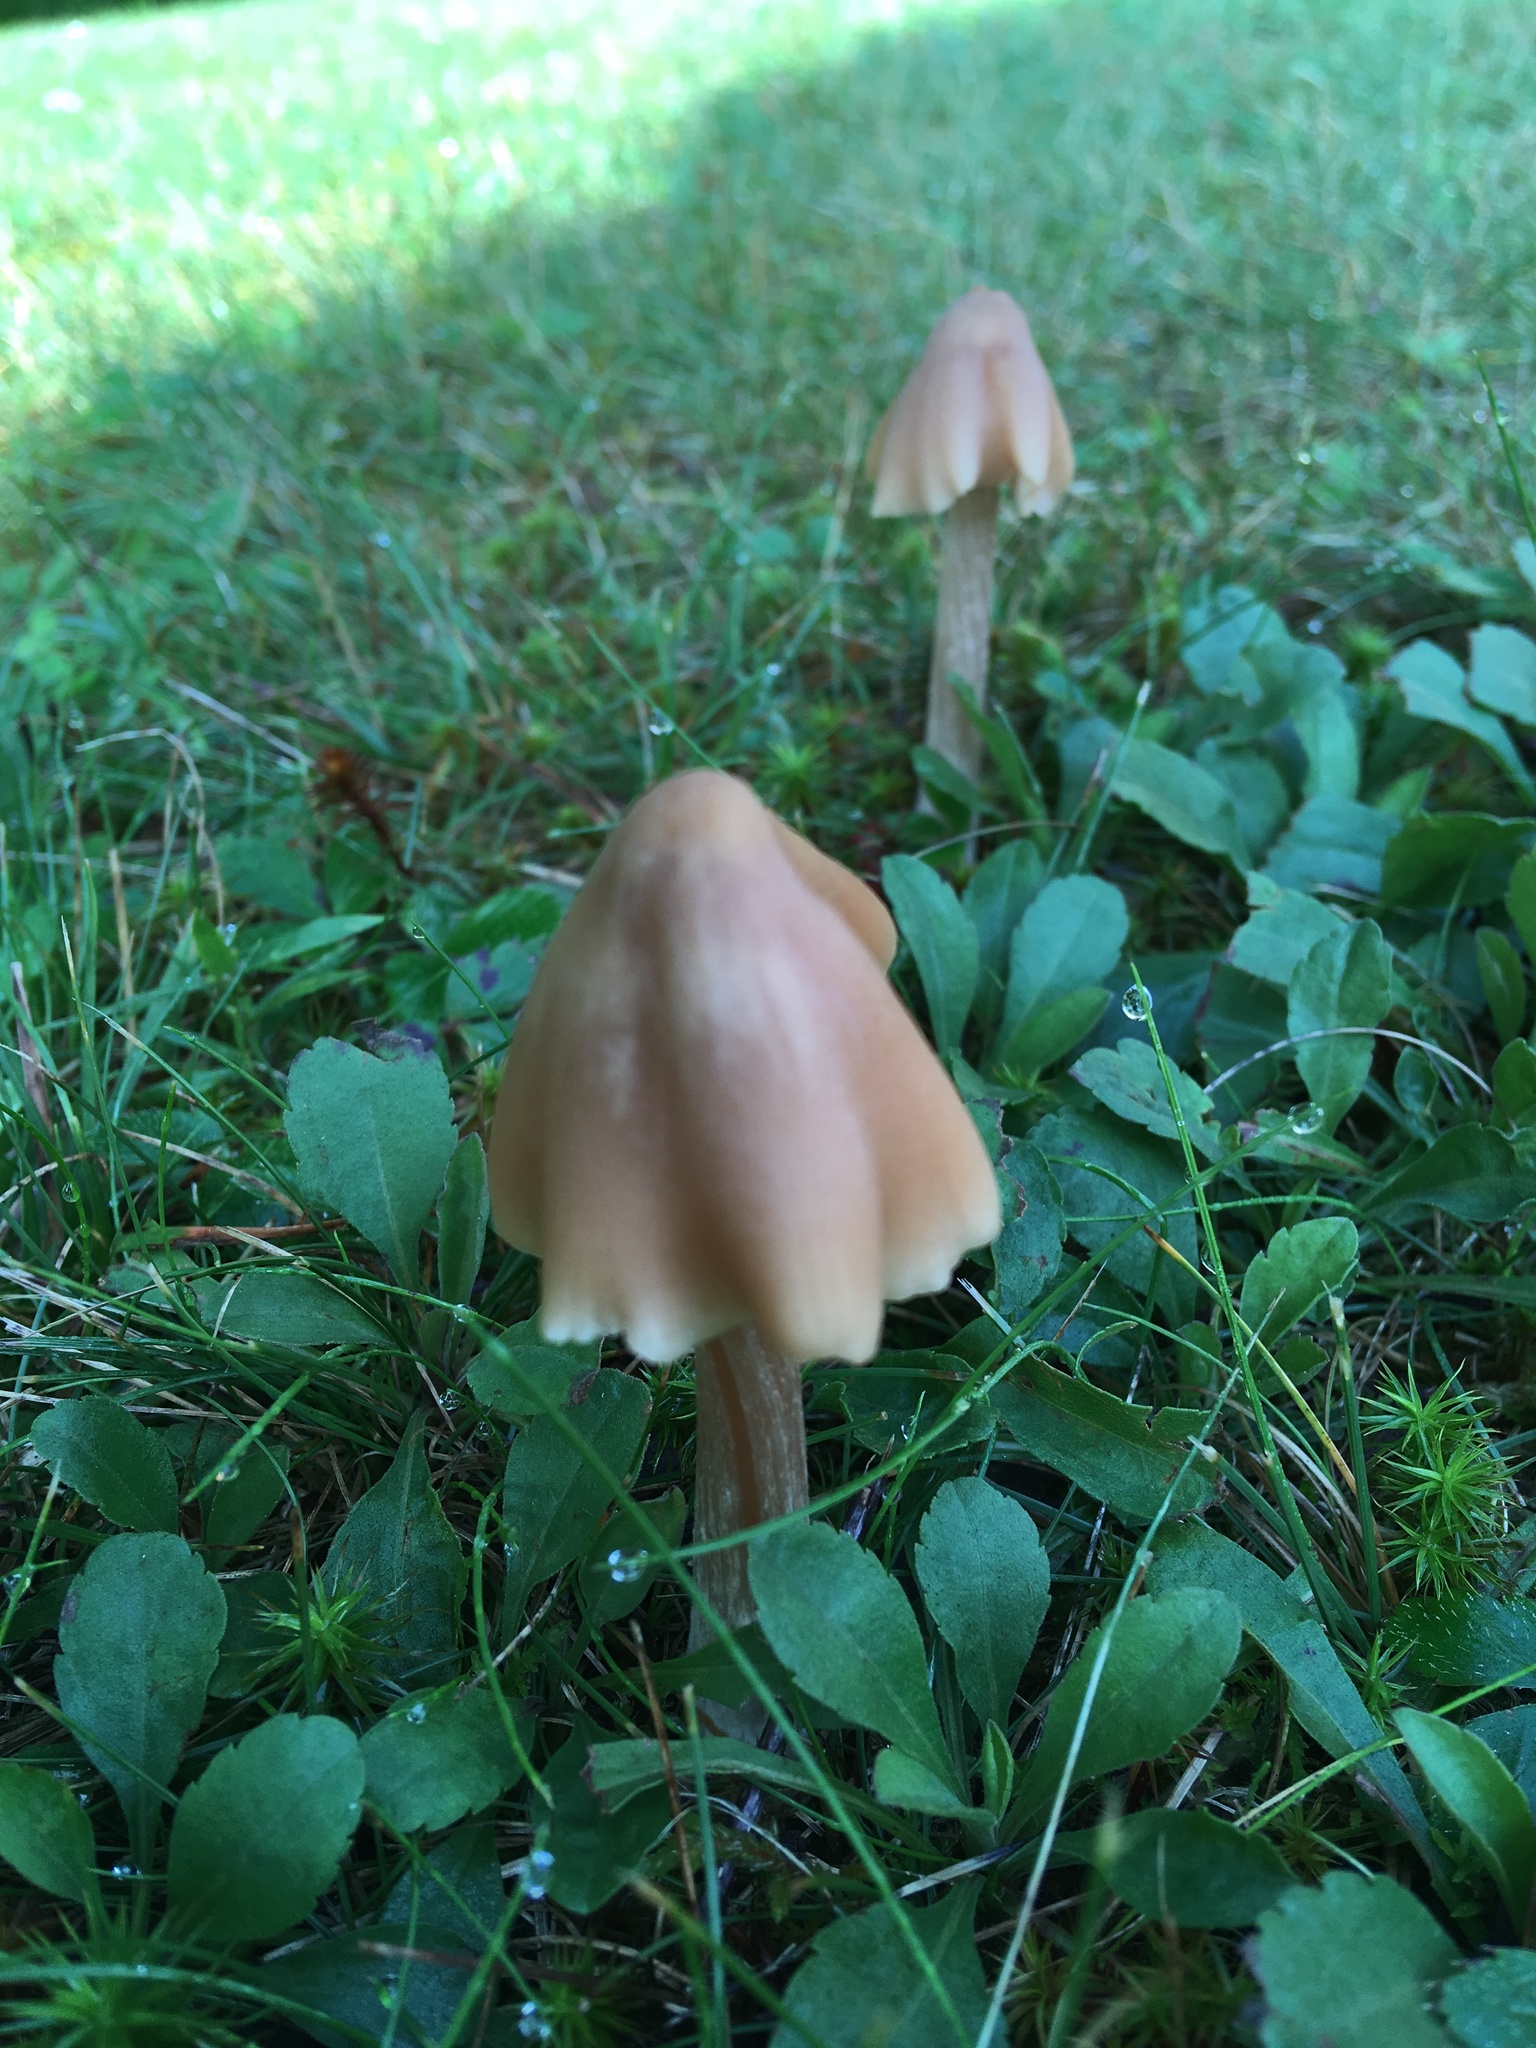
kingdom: Fungi
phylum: Basidiomycota
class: Agaricomycetes
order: Agaricales
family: Entolomataceae
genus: Entoloma
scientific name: Entoloma strictius
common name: Straight-stalked entoloma
